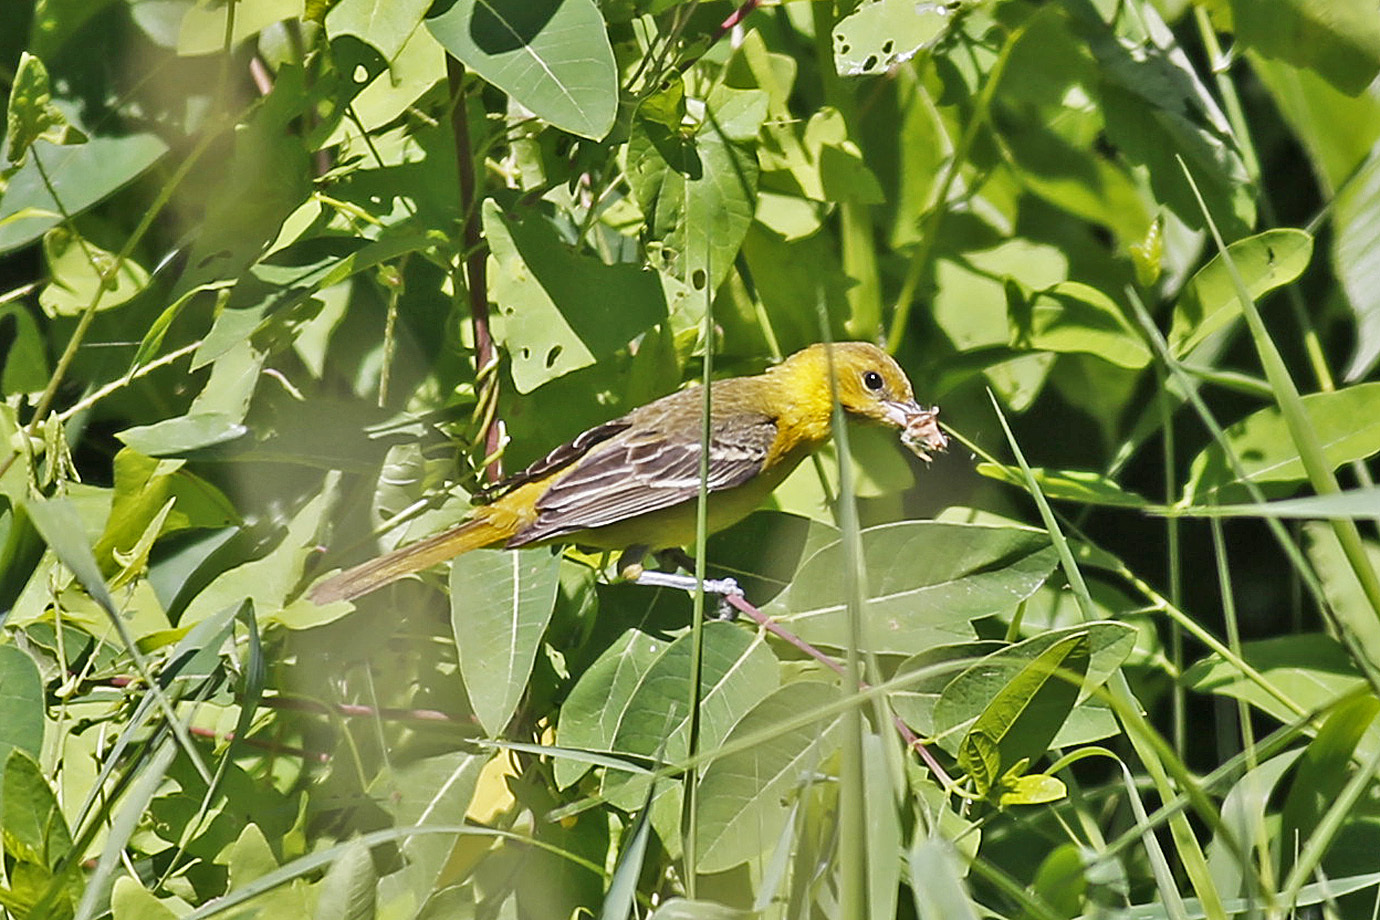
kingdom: Animalia
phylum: Chordata
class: Aves
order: Passeriformes
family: Icteridae
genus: Icterus
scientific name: Icterus spurius
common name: Orchard oriole
